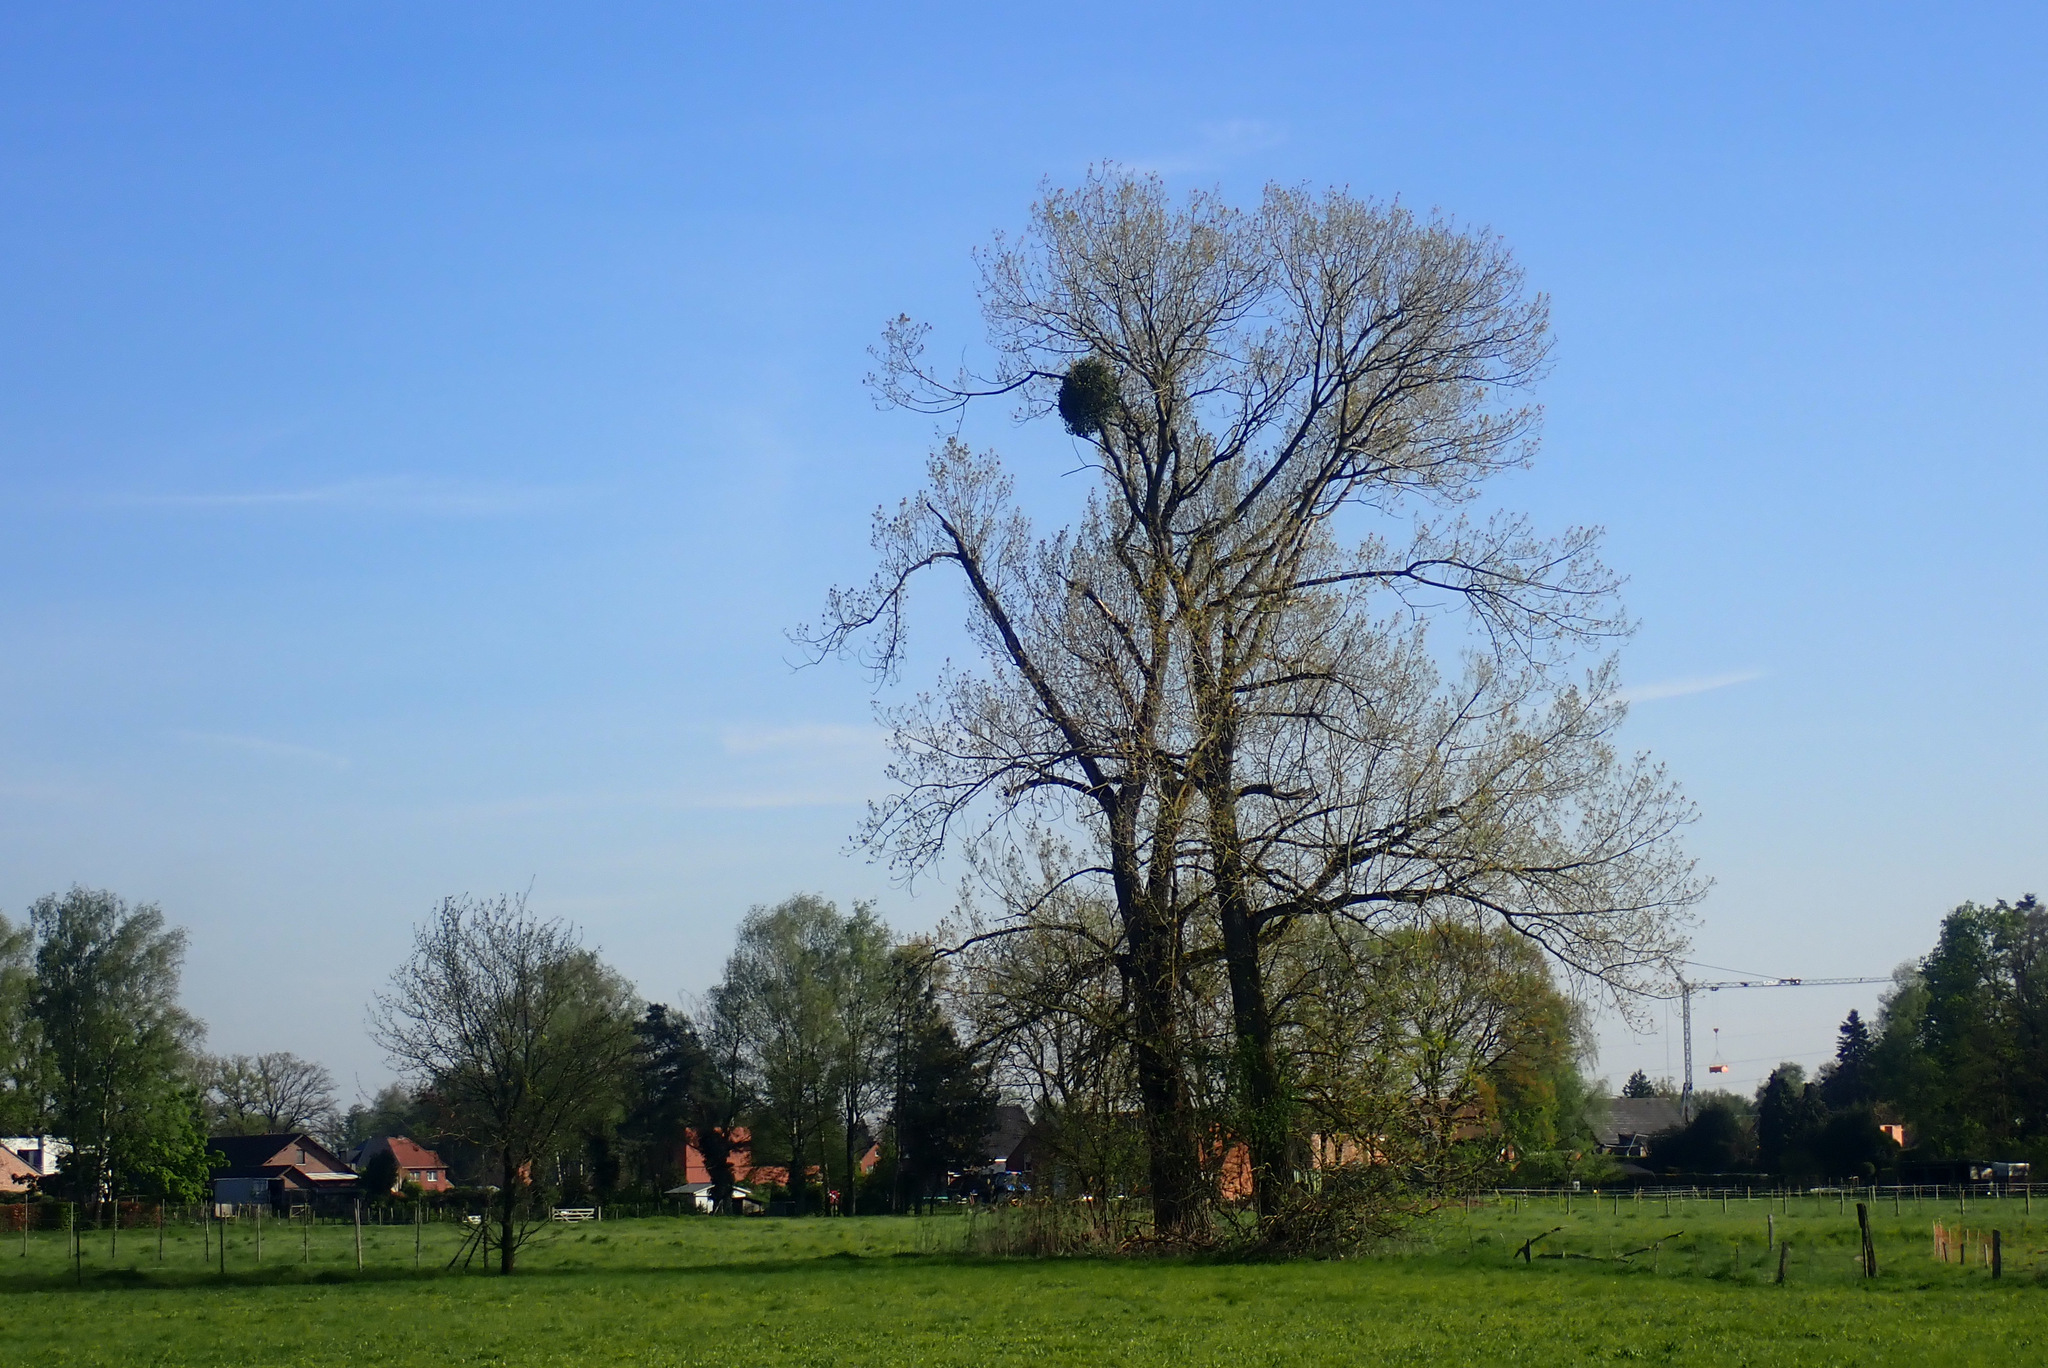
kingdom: Plantae
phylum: Tracheophyta
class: Magnoliopsida
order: Santalales
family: Viscaceae
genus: Viscum
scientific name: Viscum album
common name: Mistletoe
